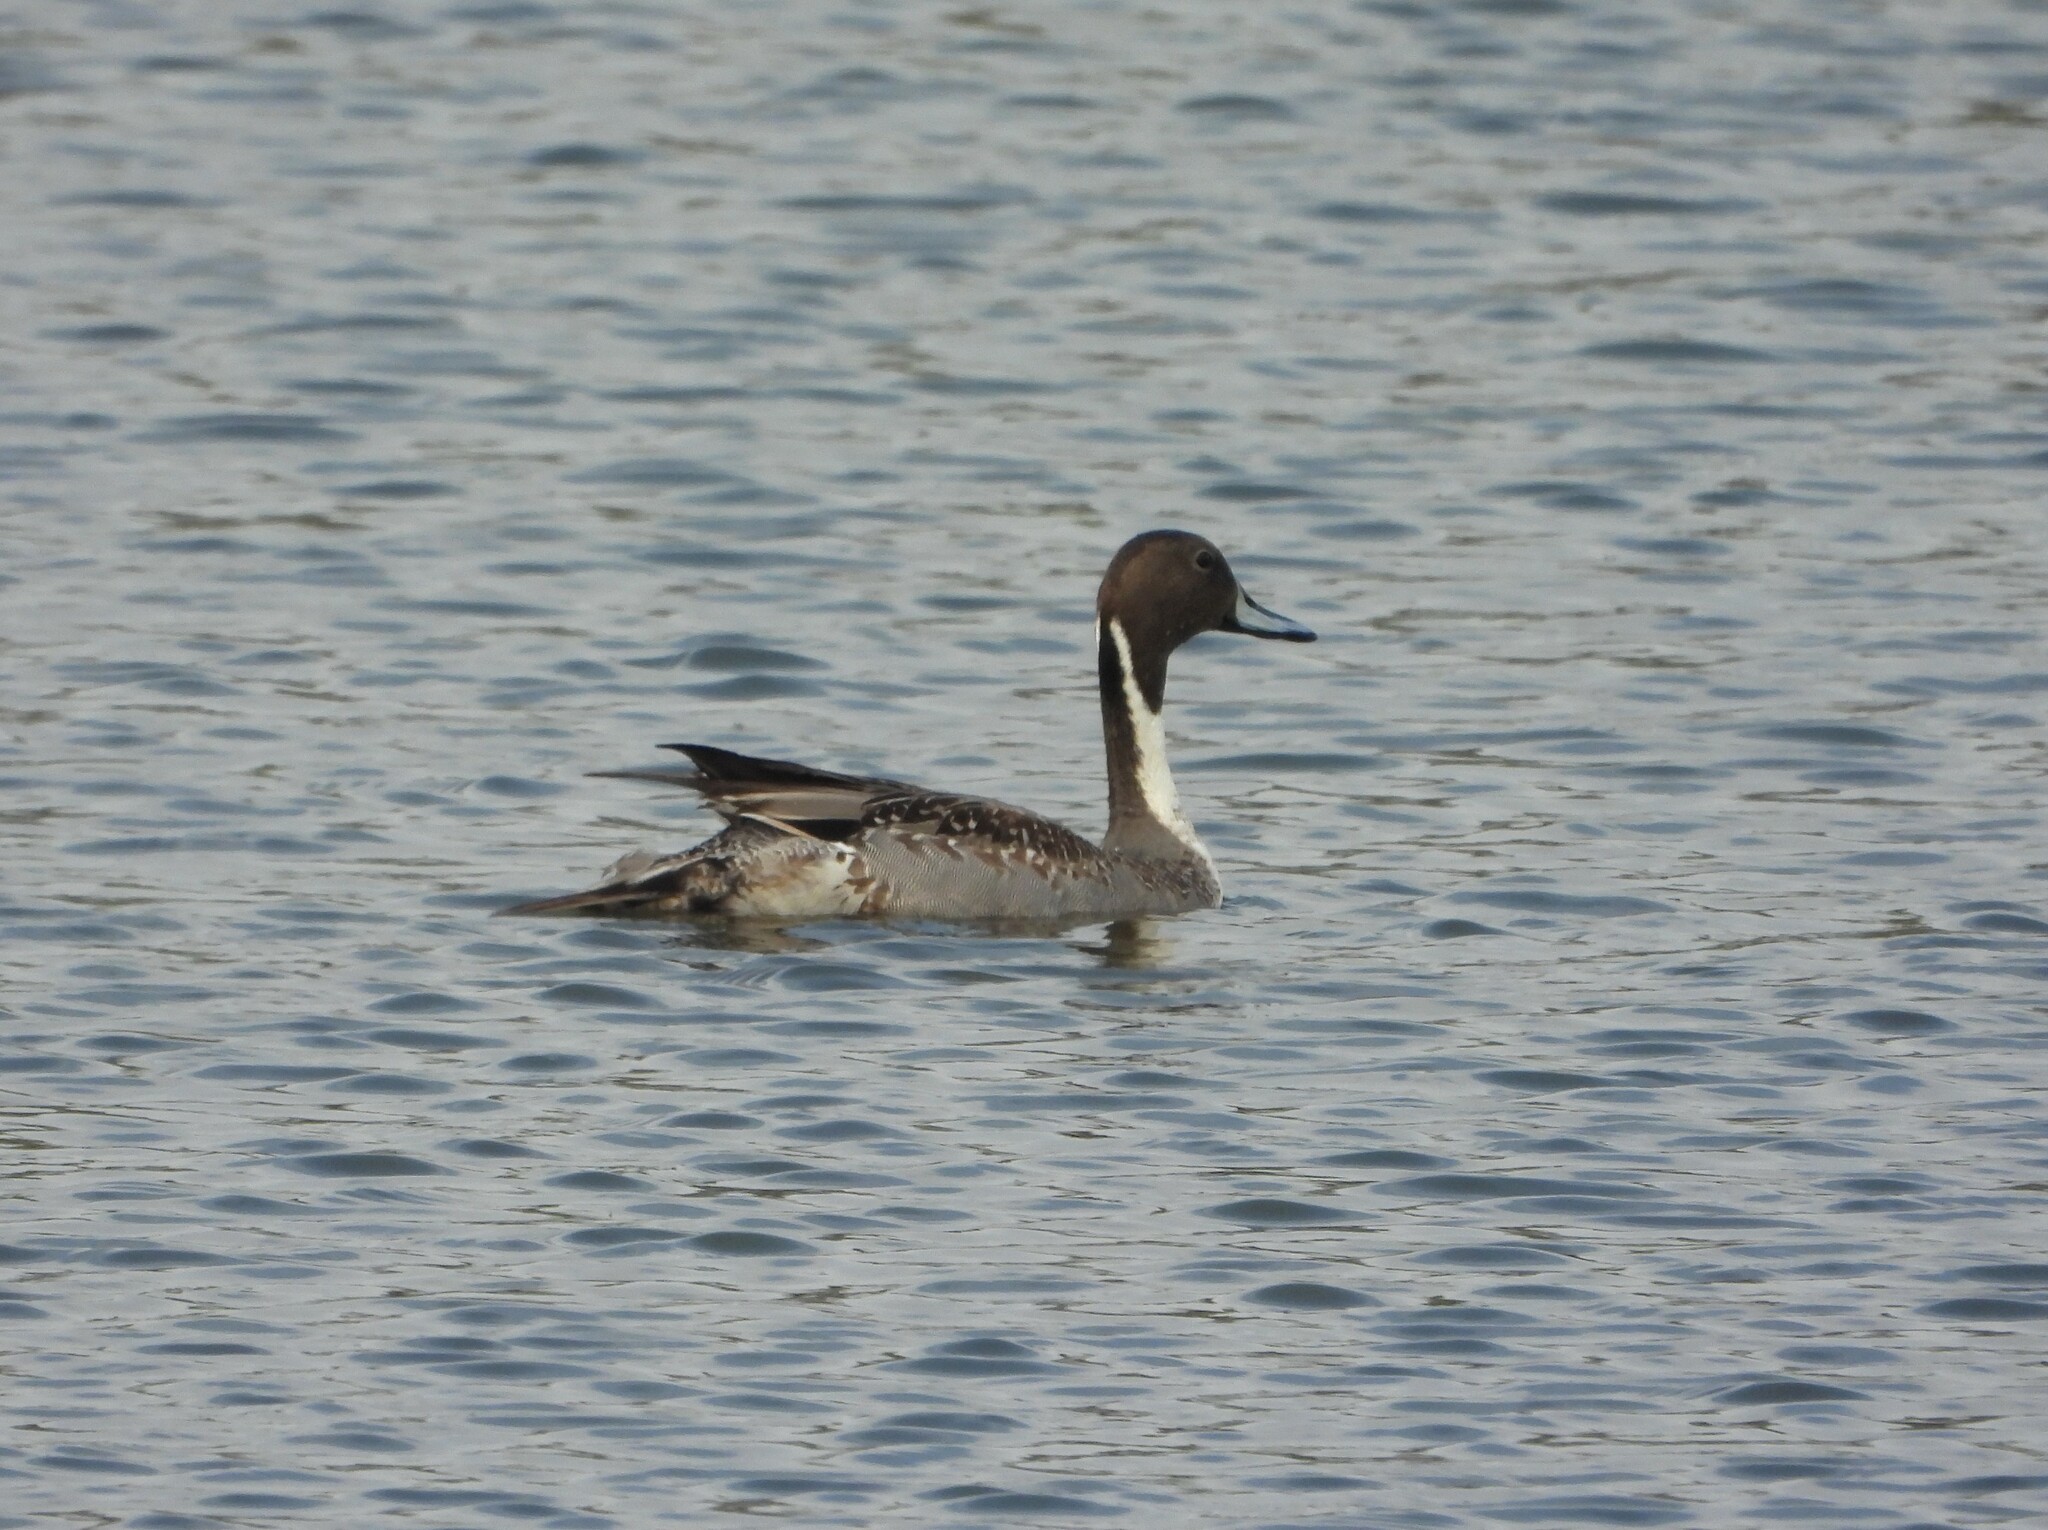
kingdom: Animalia
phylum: Chordata
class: Aves
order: Anseriformes
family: Anatidae
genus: Anas
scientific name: Anas acuta
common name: Northern pintail
